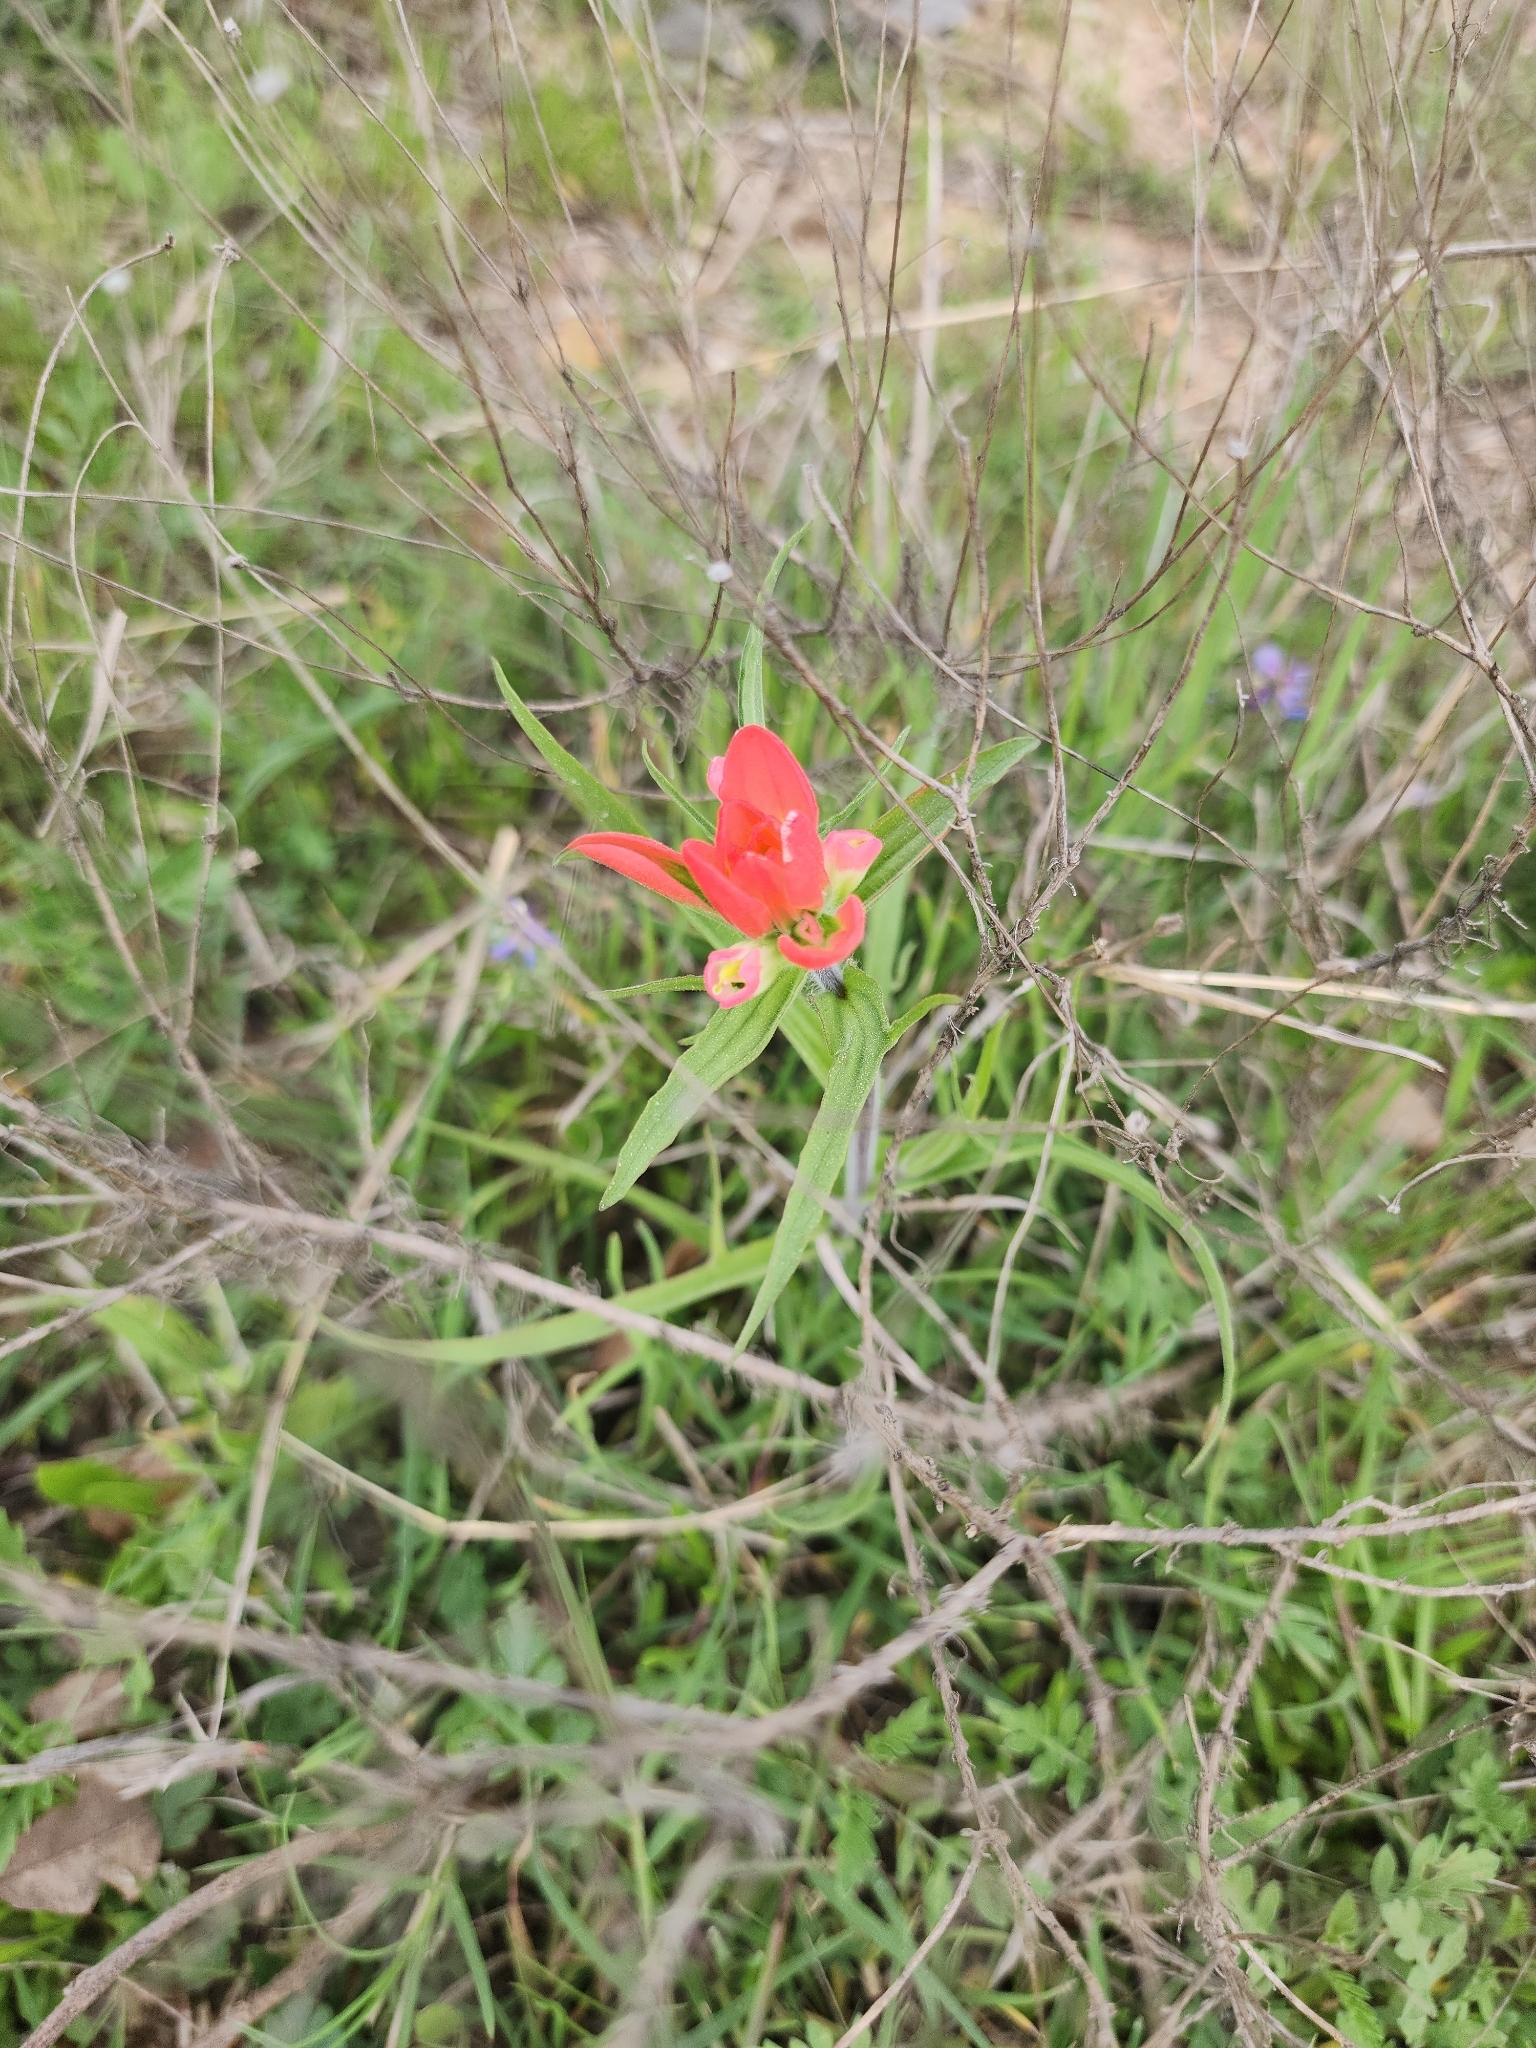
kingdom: Plantae
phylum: Tracheophyta
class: Magnoliopsida
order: Lamiales
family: Orobanchaceae
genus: Castilleja
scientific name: Castilleja indivisa
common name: Texas paintbrush
